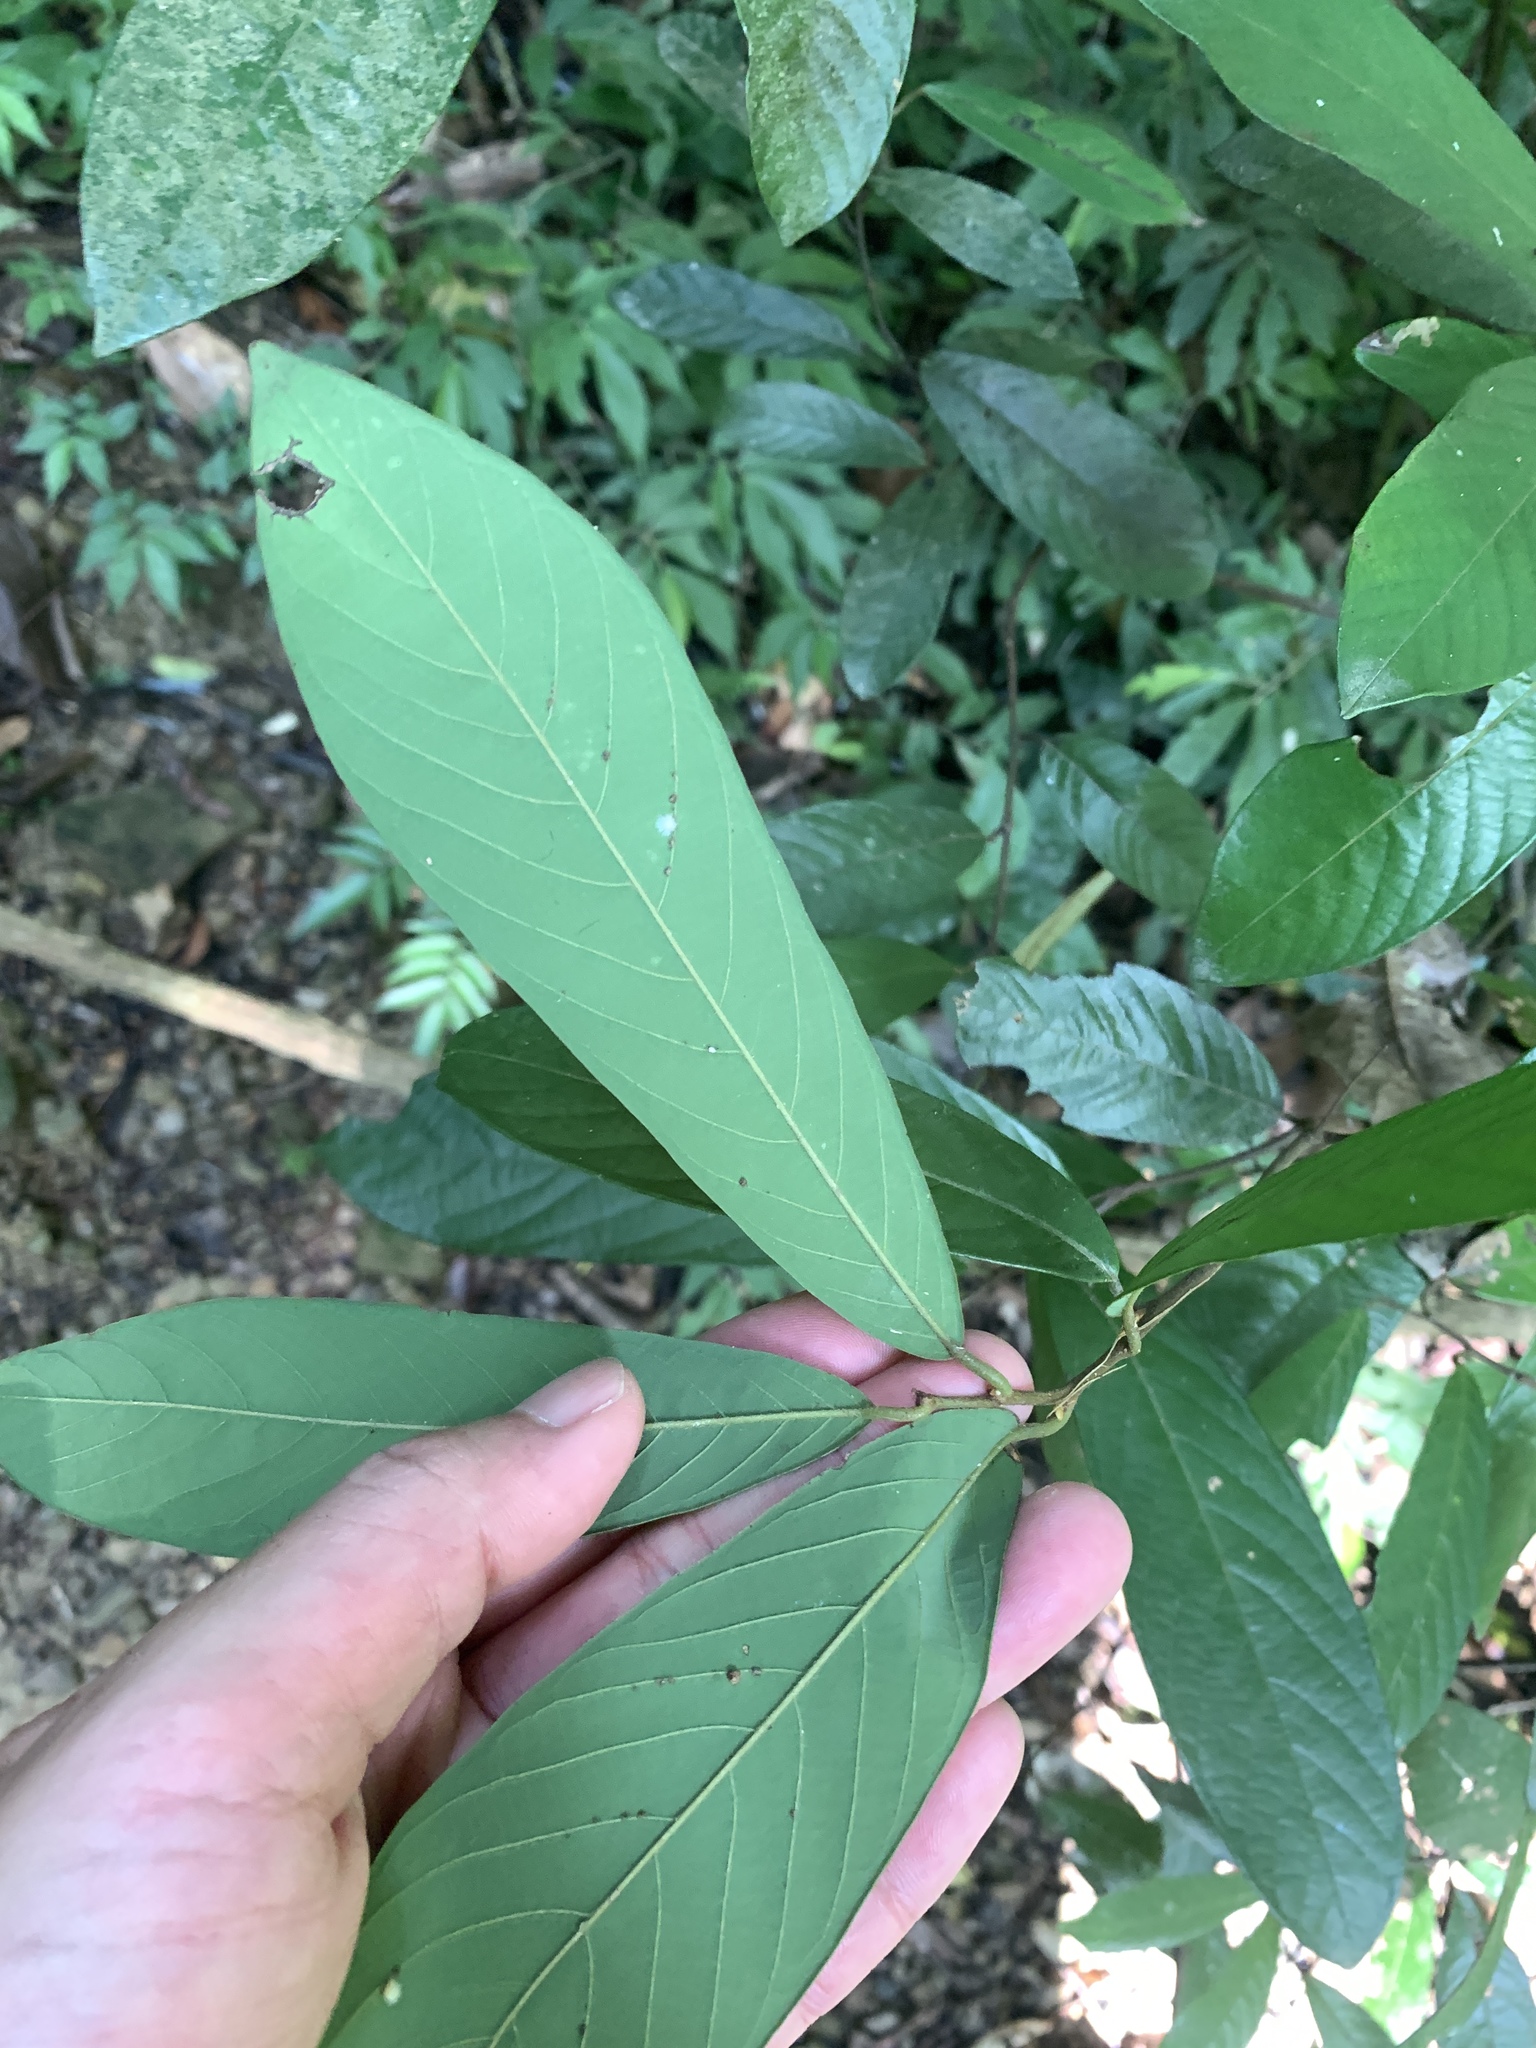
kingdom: Plantae
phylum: Tracheophyta
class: Magnoliopsida
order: Magnoliales
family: Annonaceae
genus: Fissistigma
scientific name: Fissistigma oldhamii
